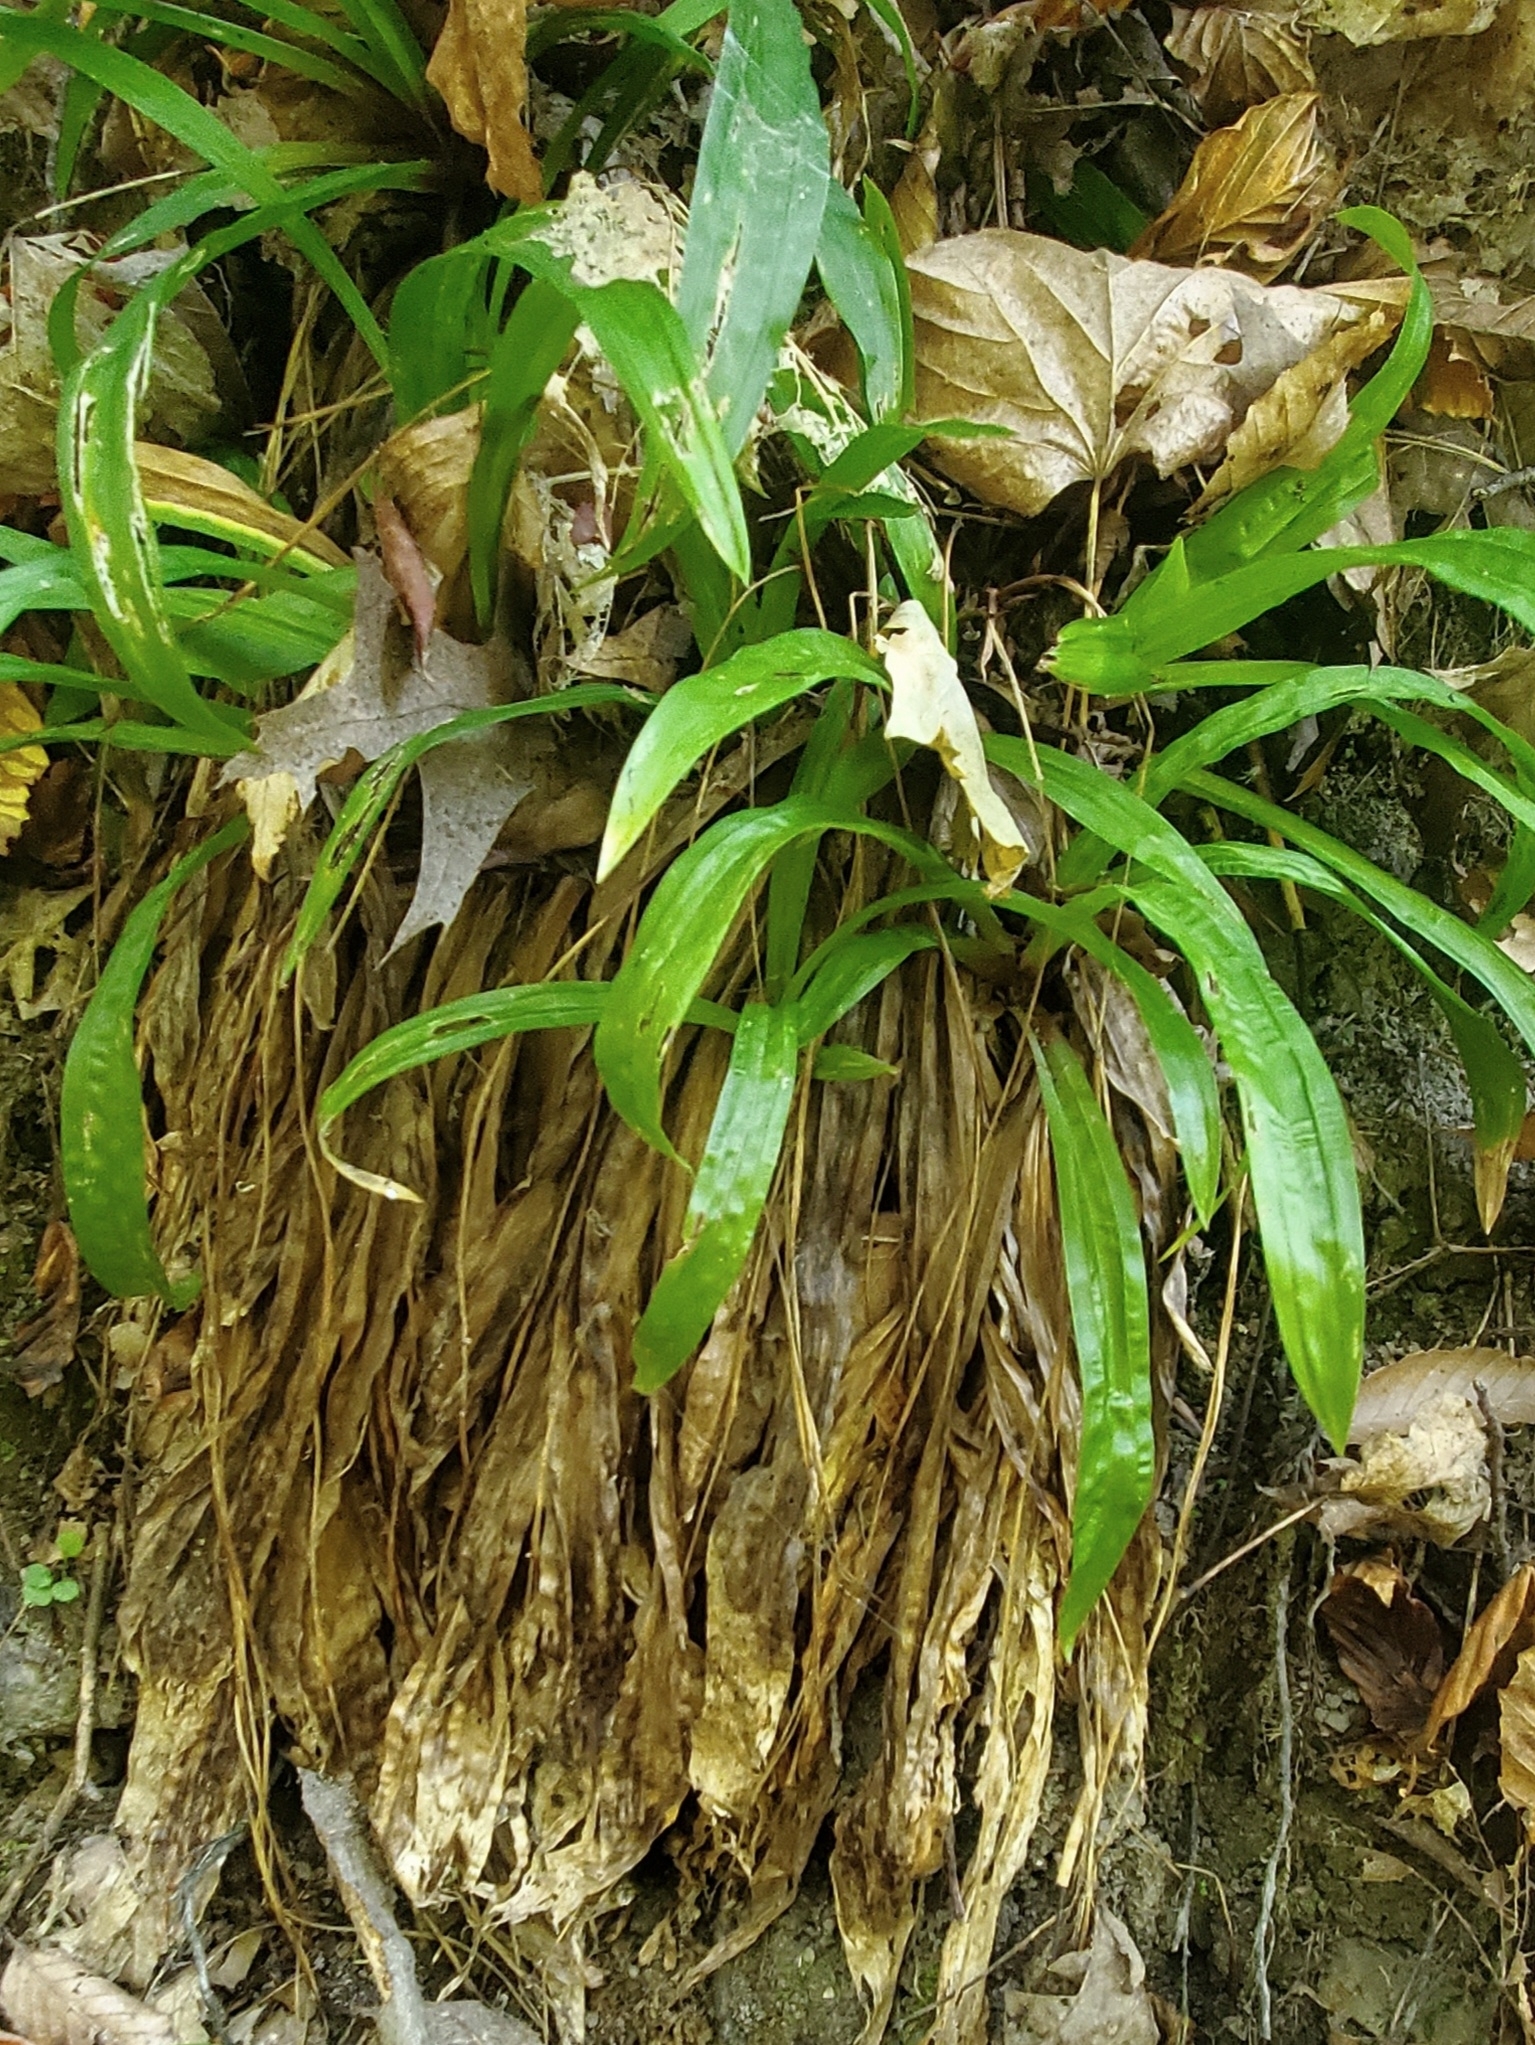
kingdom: Plantae
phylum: Tracheophyta
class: Liliopsida
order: Poales
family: Cyperaceae
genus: Carex
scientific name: Carex plantaginea
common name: Plantain-leaved sedge
